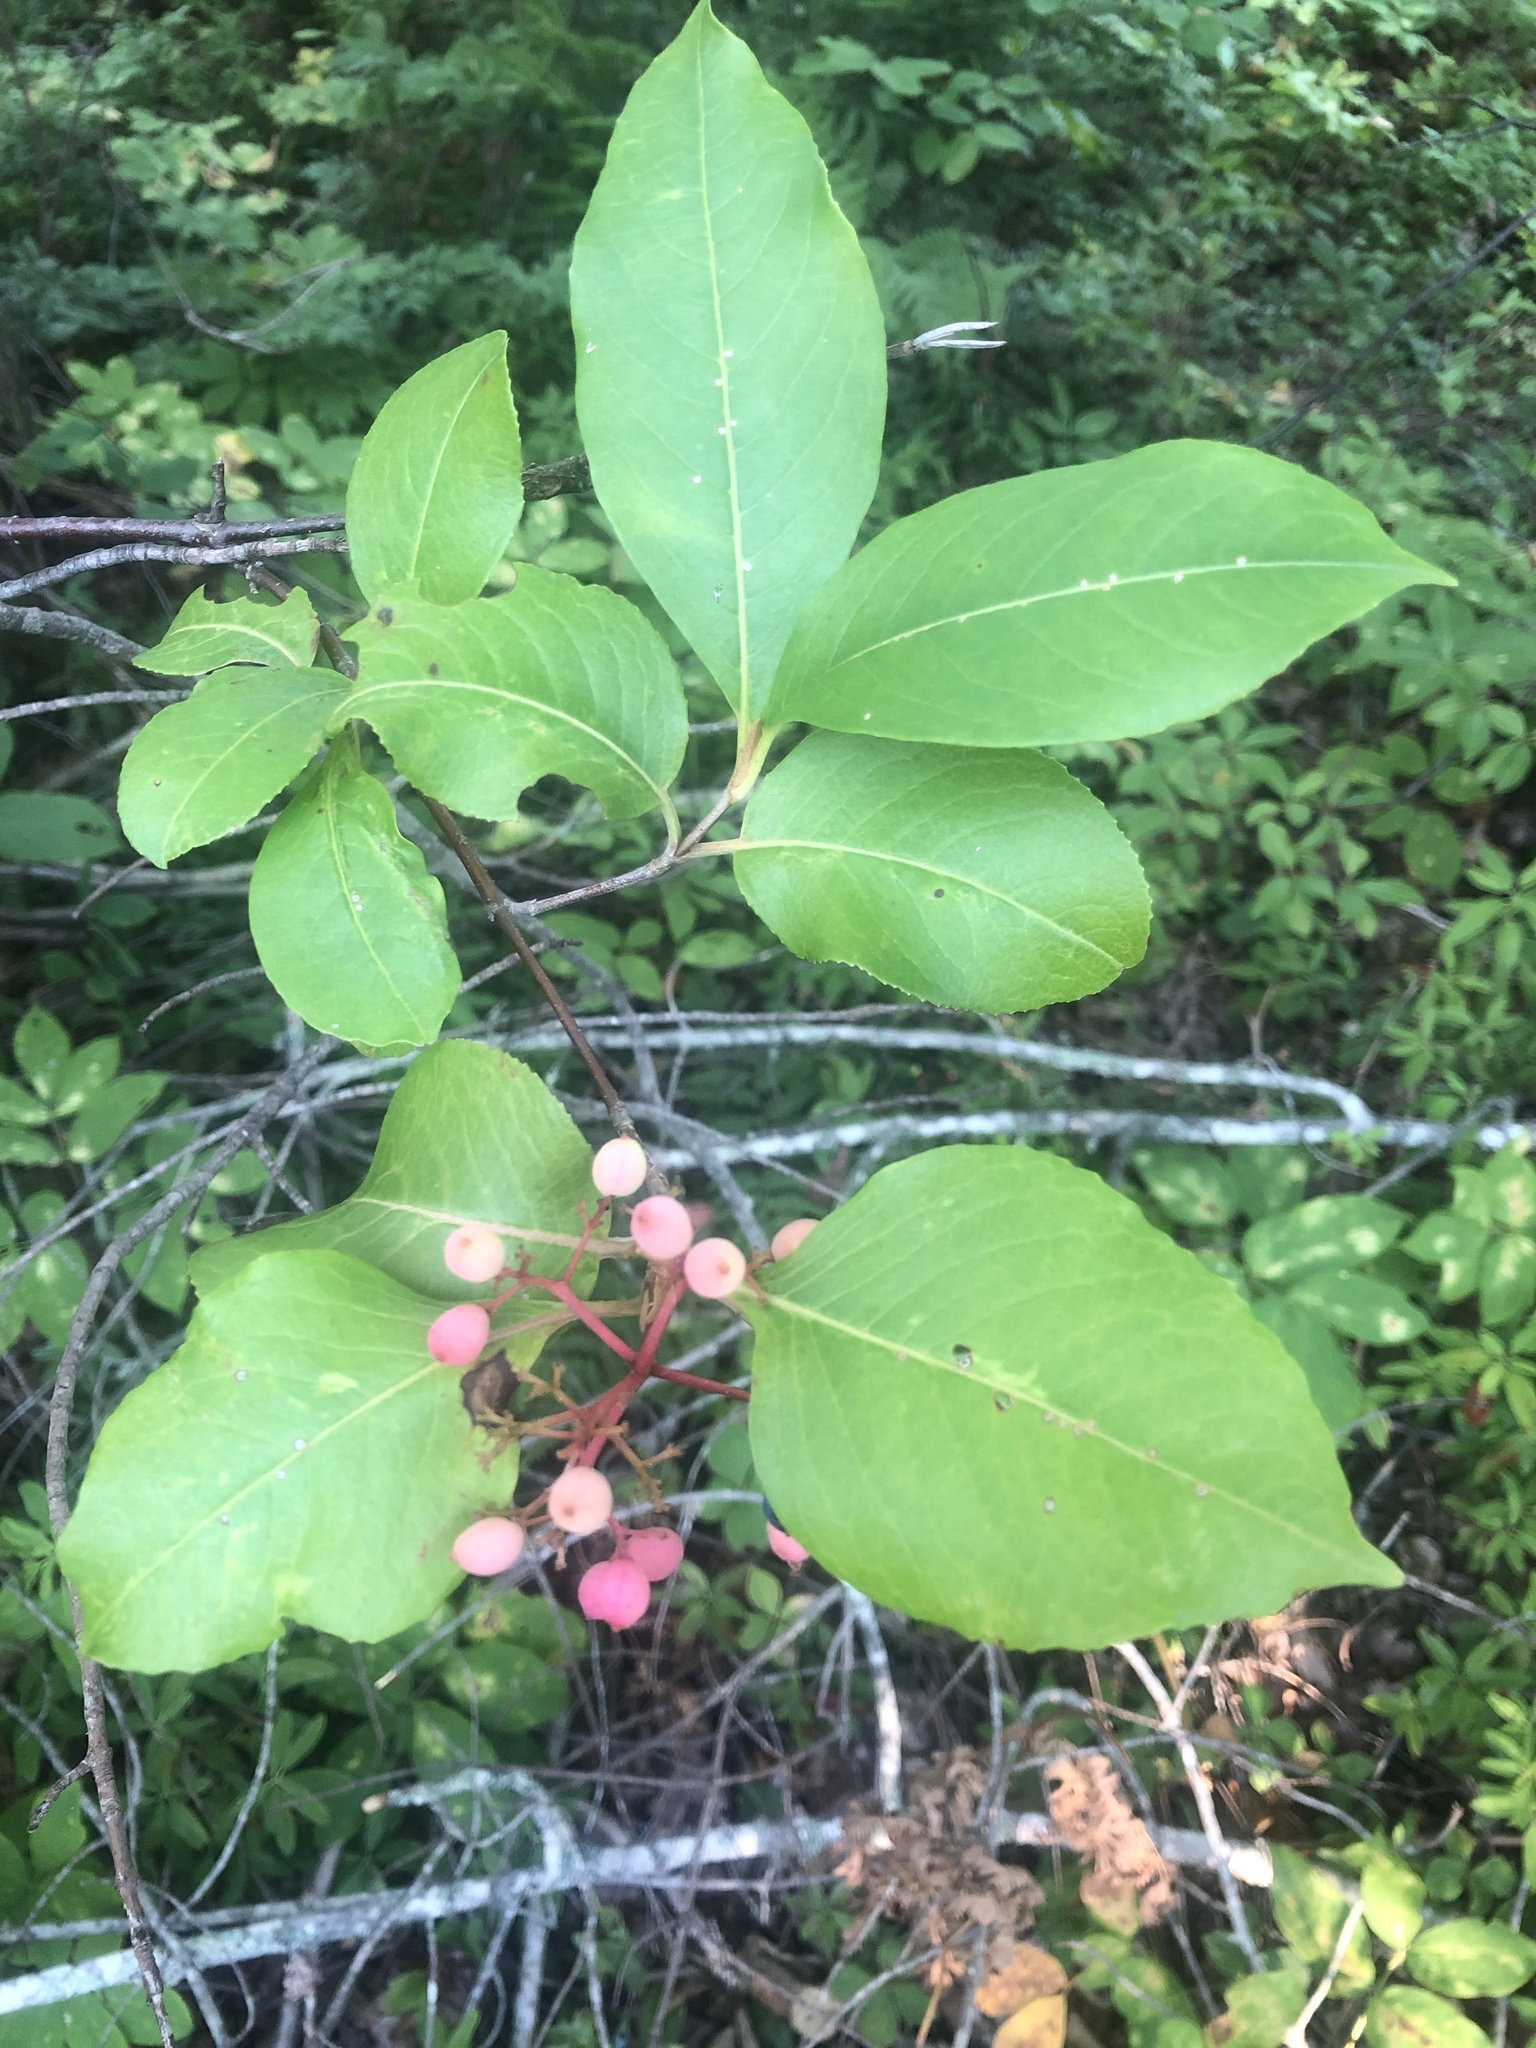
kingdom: Plantae
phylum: Tracheophyta
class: Magnoliopsida
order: Dipsacales
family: Viburnaceae
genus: Viburnum
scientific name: Viburnum cassinoides
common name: Swamp haw
